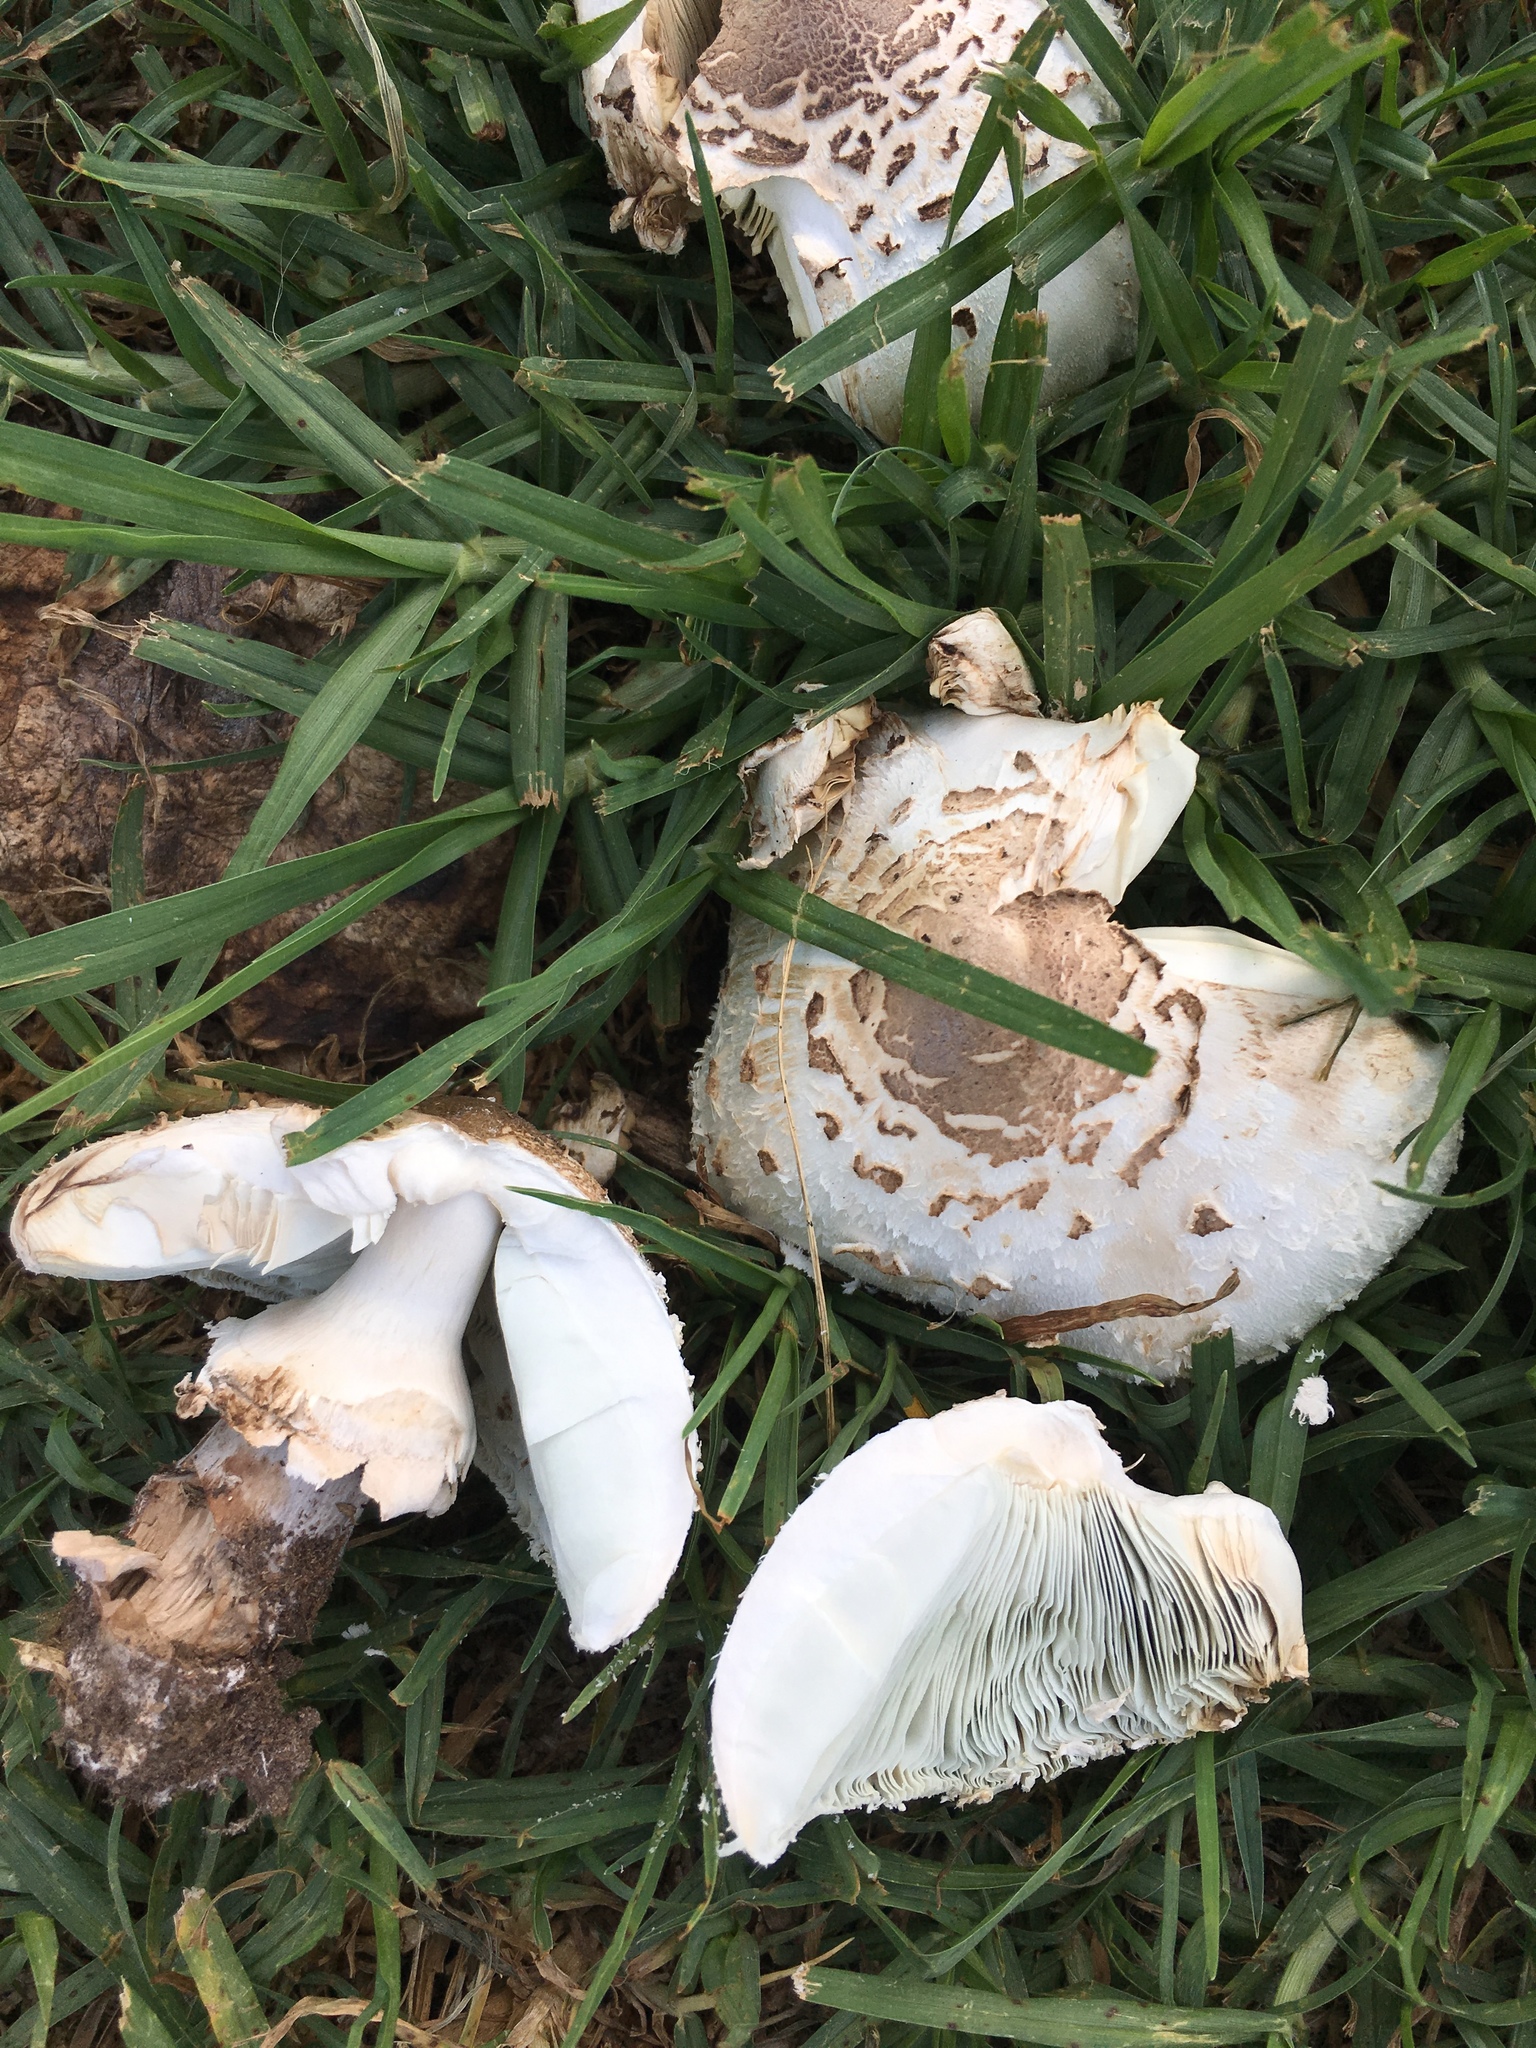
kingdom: Fungi
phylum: Basidiomycota
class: Agaricomycetes
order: Agaricales
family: Agaricaceae
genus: Chlorophyllum
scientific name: Chlorophyllum molybdites
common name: False parasol
